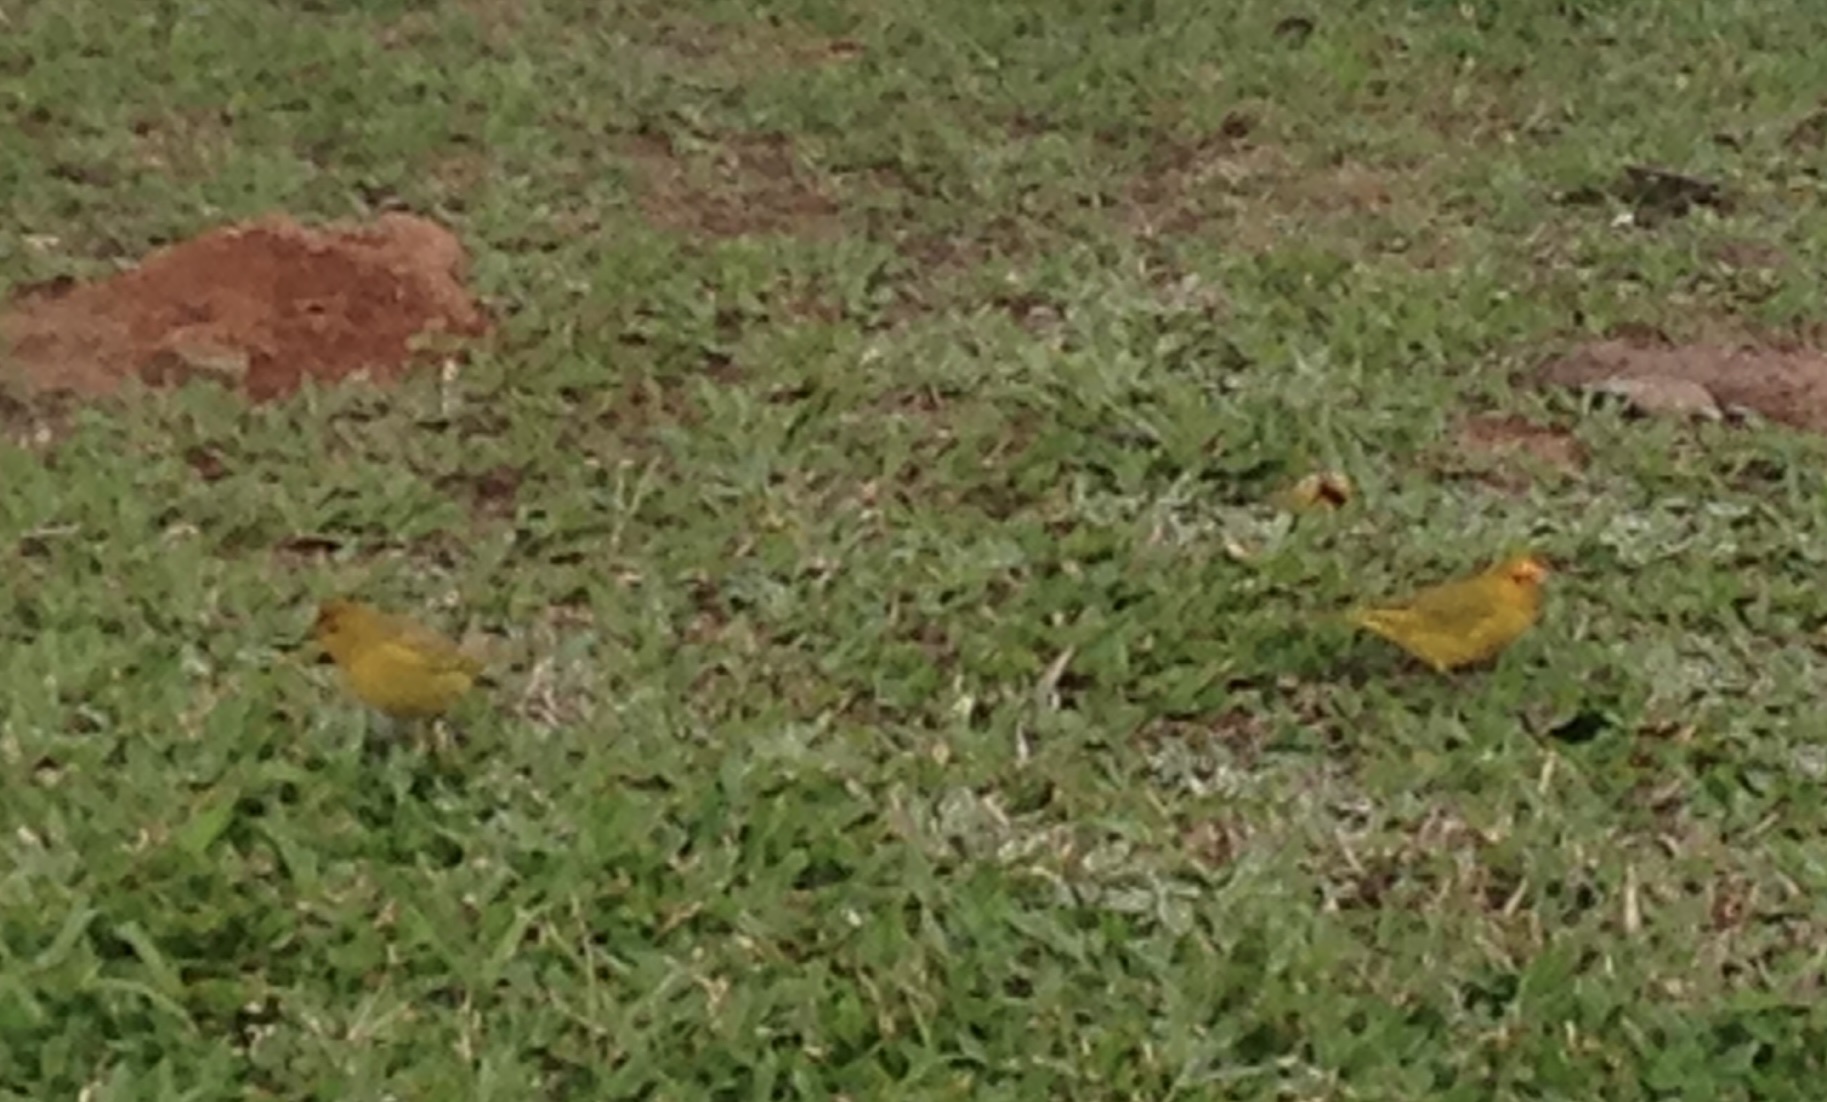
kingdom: Animalia
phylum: Chordata
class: Aves
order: Passeriformes
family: Thraupidae
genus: Sicalis
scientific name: Sicalis flaveola
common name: Saffron finch
